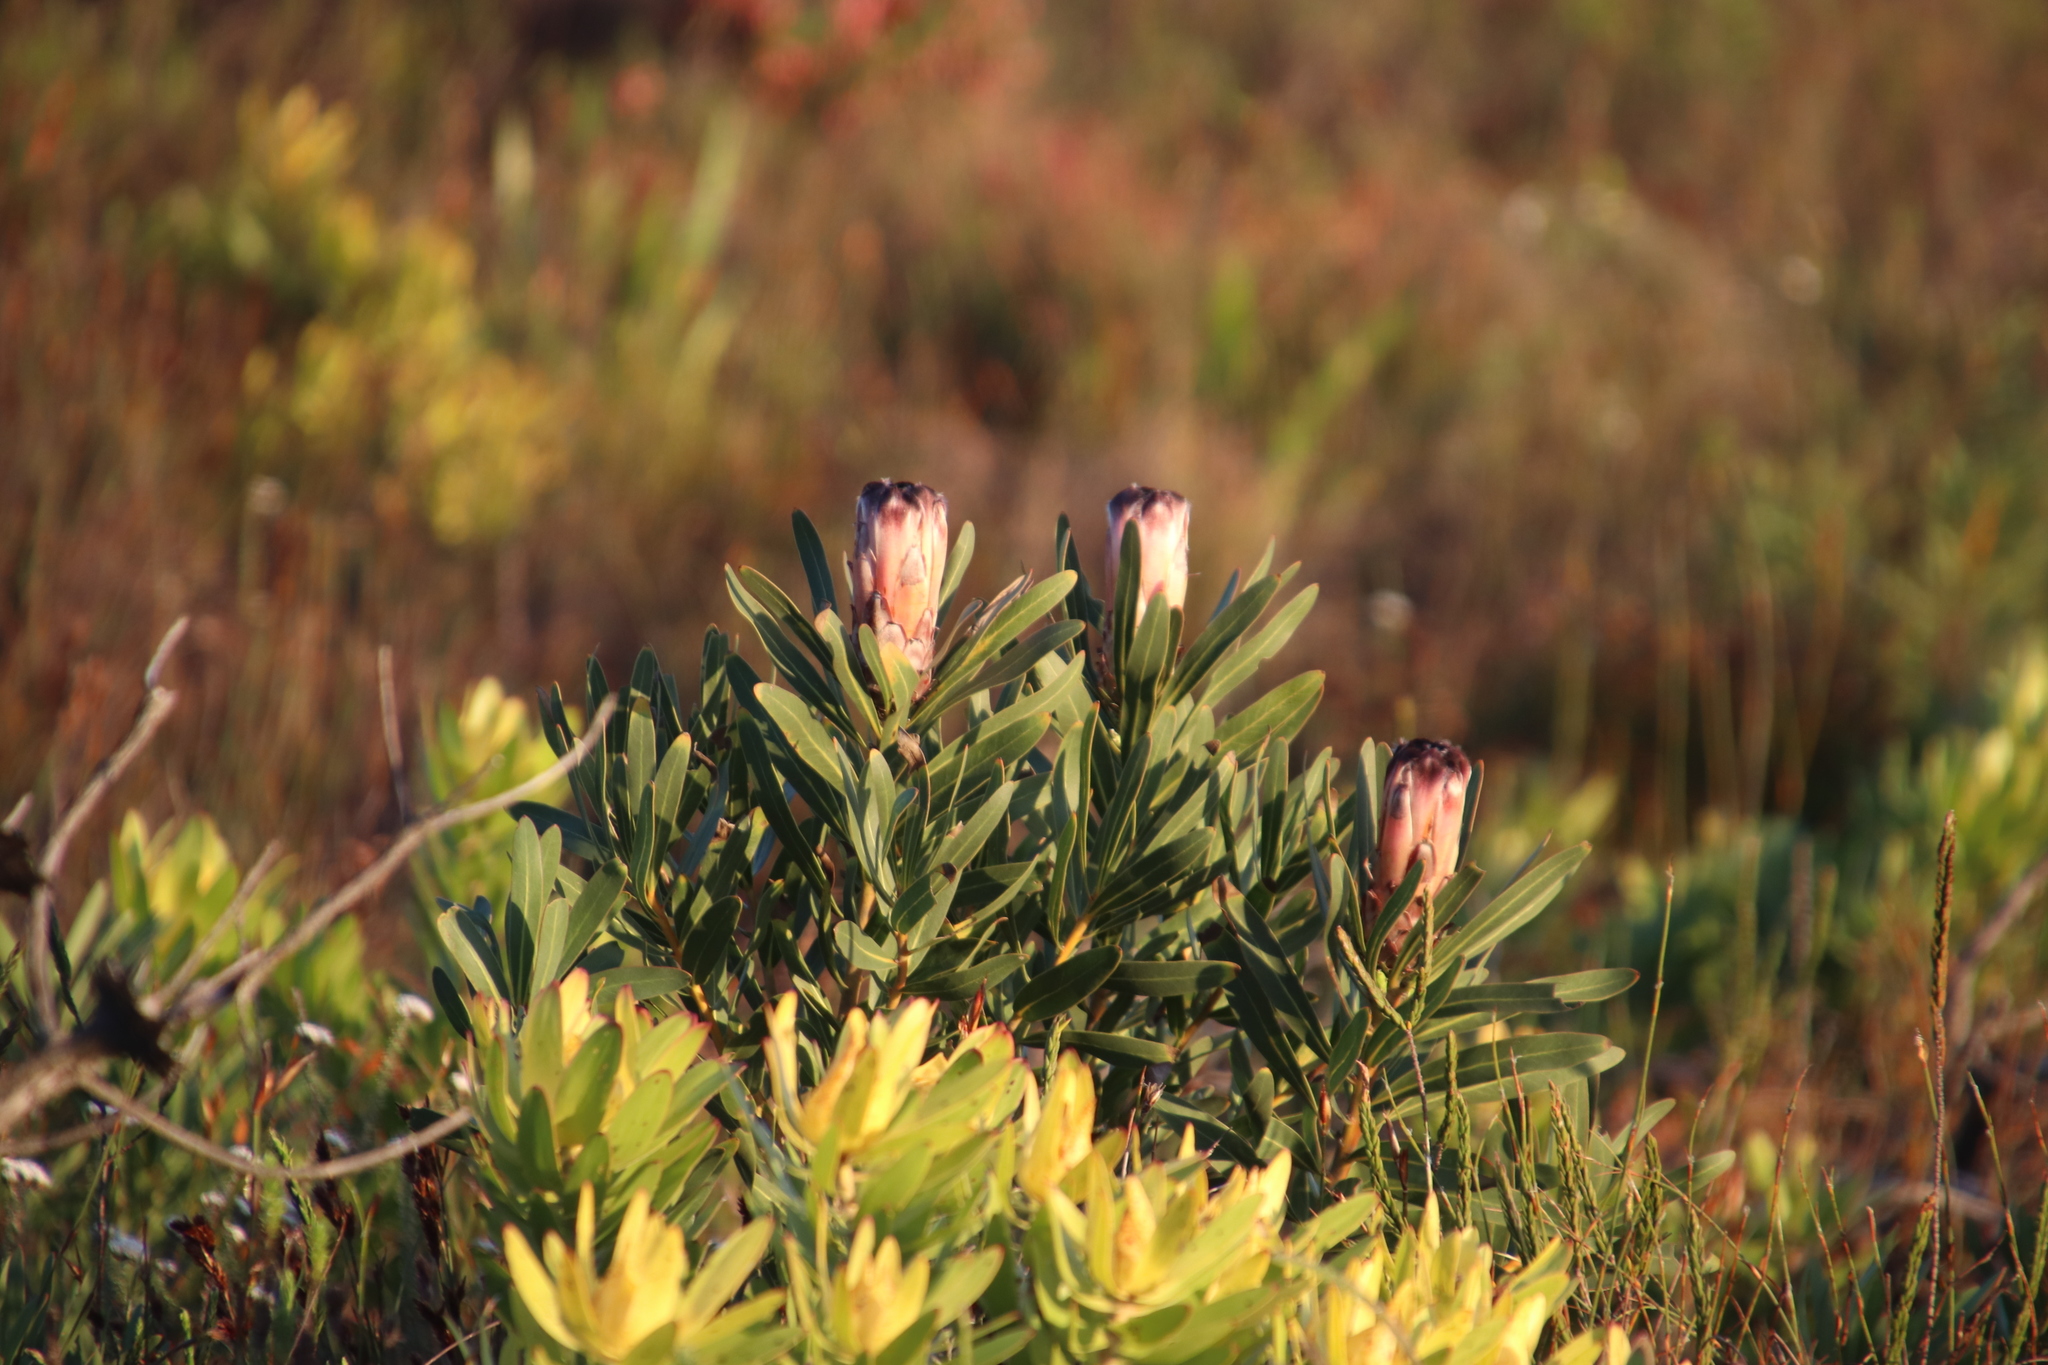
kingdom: Plantae
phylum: Tracheophyta
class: Magnoliopsida
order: Proteales
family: Proteaceae
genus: Protea
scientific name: Protea
